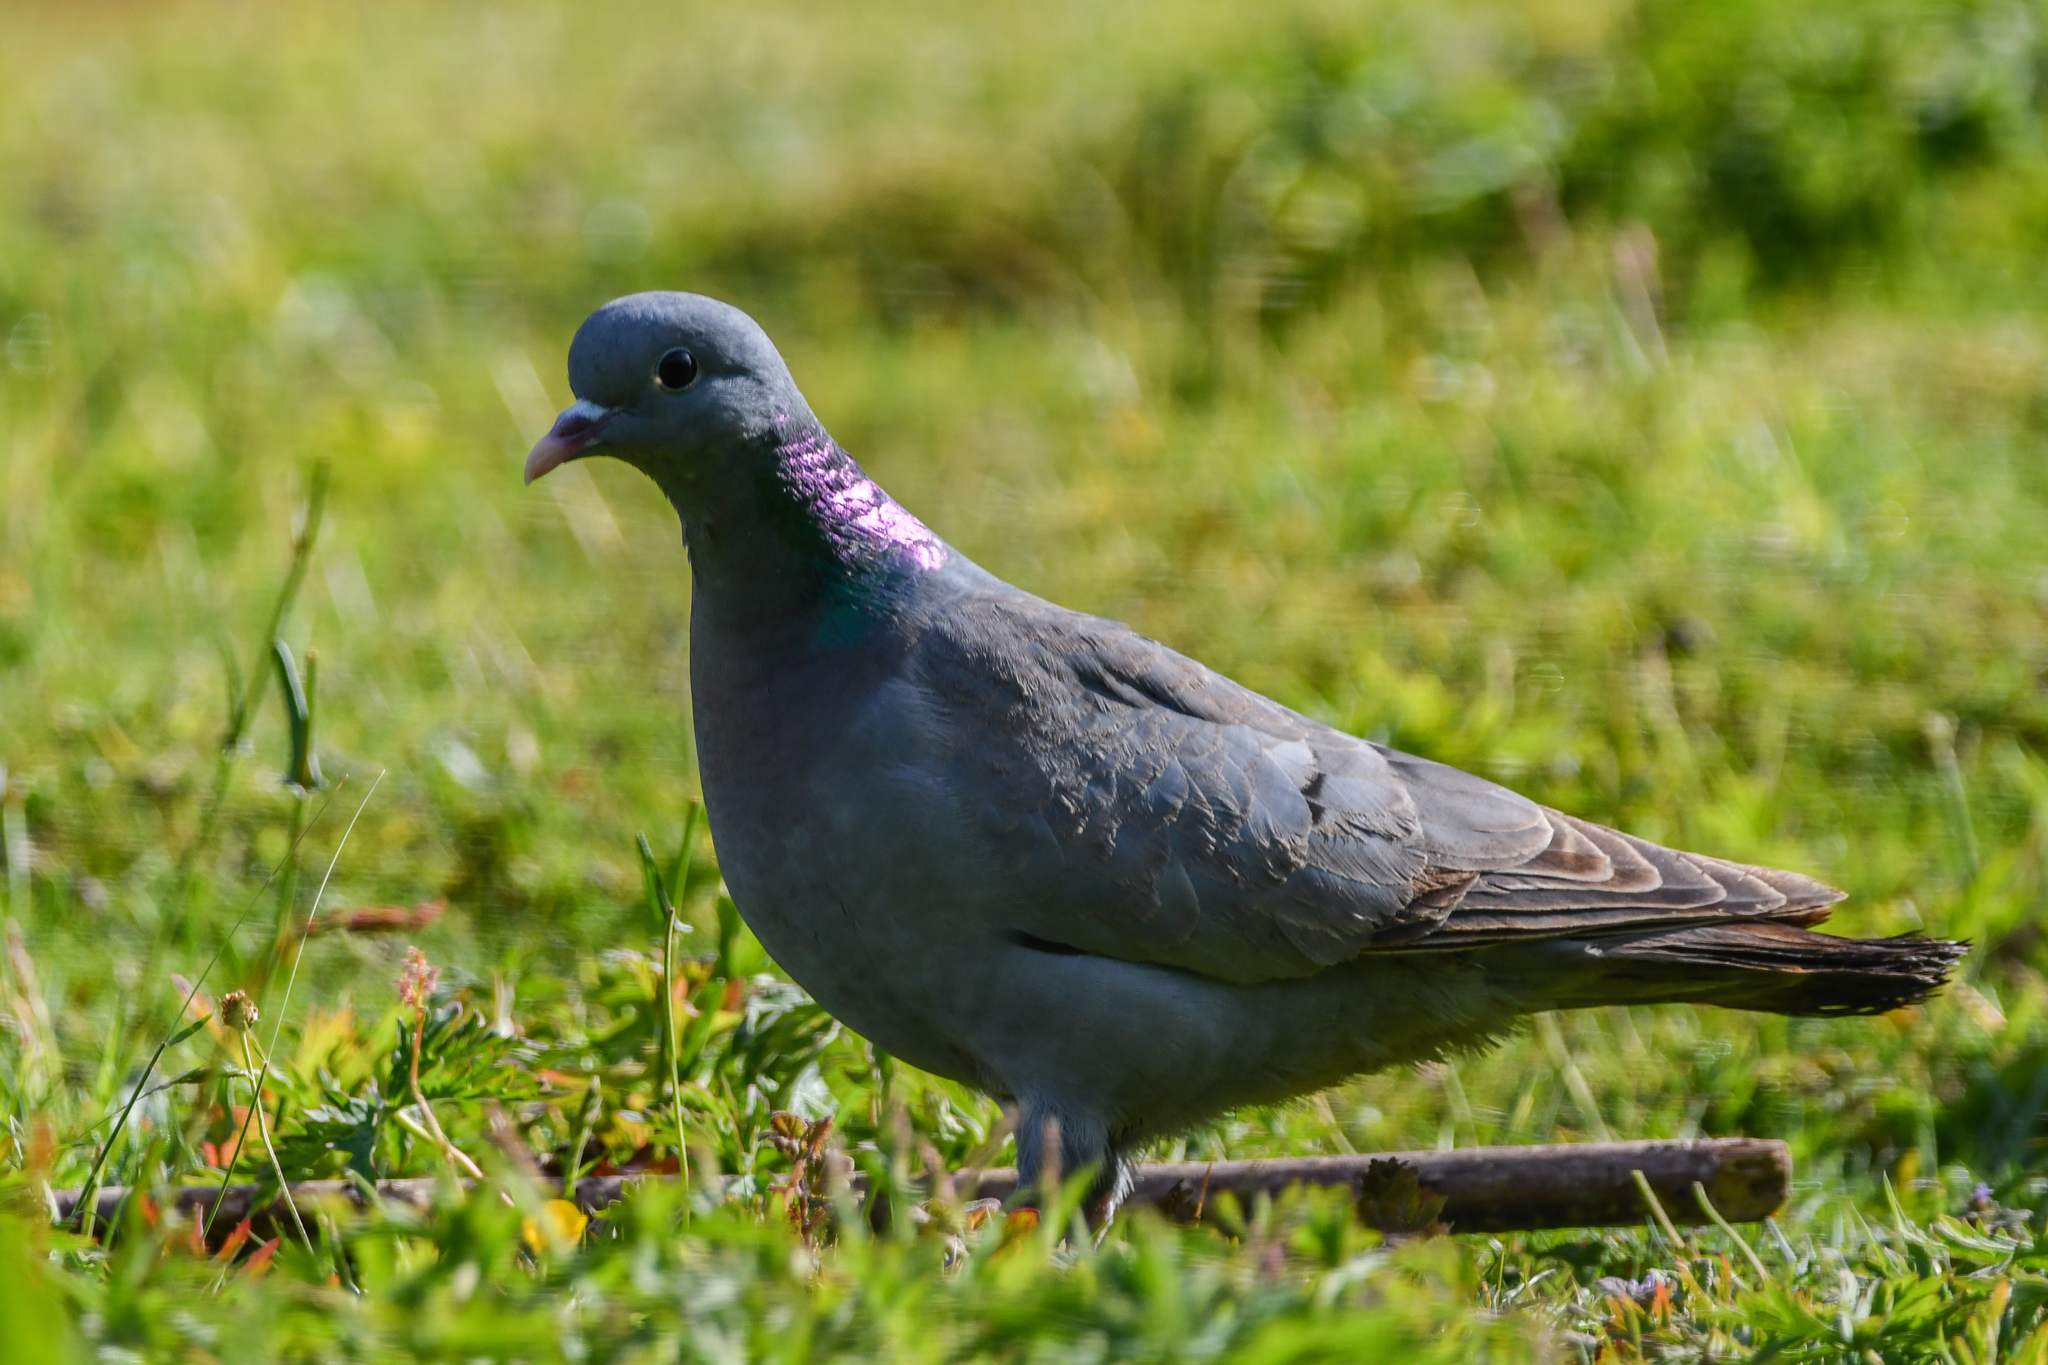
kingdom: Animalia
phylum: Chordata
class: Aves
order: Columbiformes
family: Columbidae
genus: Columba
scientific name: Columba oenas
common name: Stock dove
